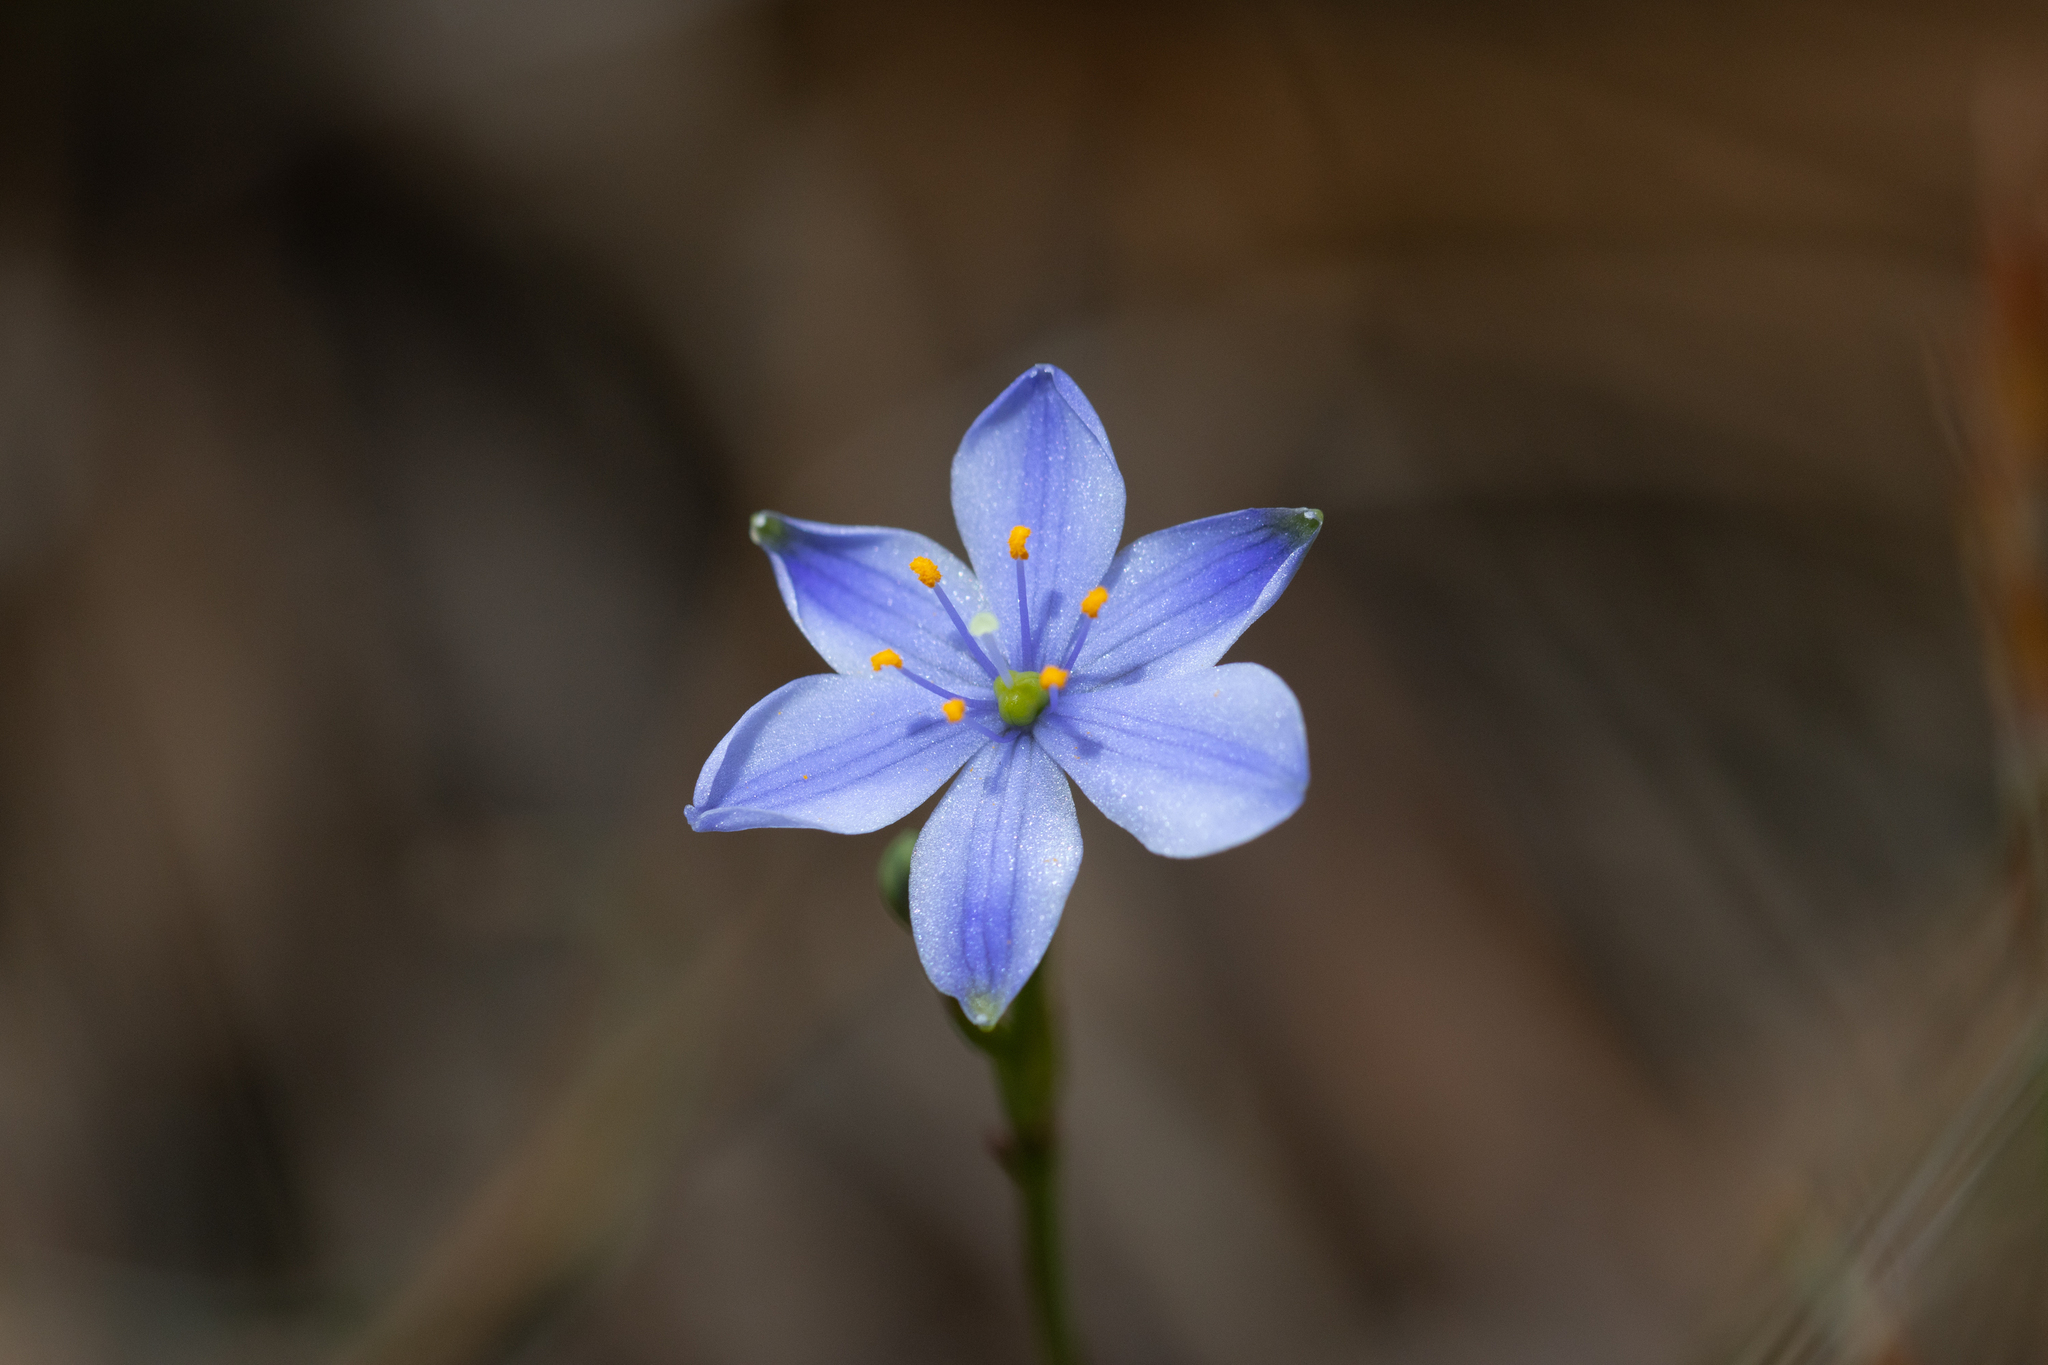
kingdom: Plantae
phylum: Tracheophyta
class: Liliopsida
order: Asparagales
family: Asphodelaceae
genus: Chamaescilla
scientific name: Chamaescilla corymbosa
